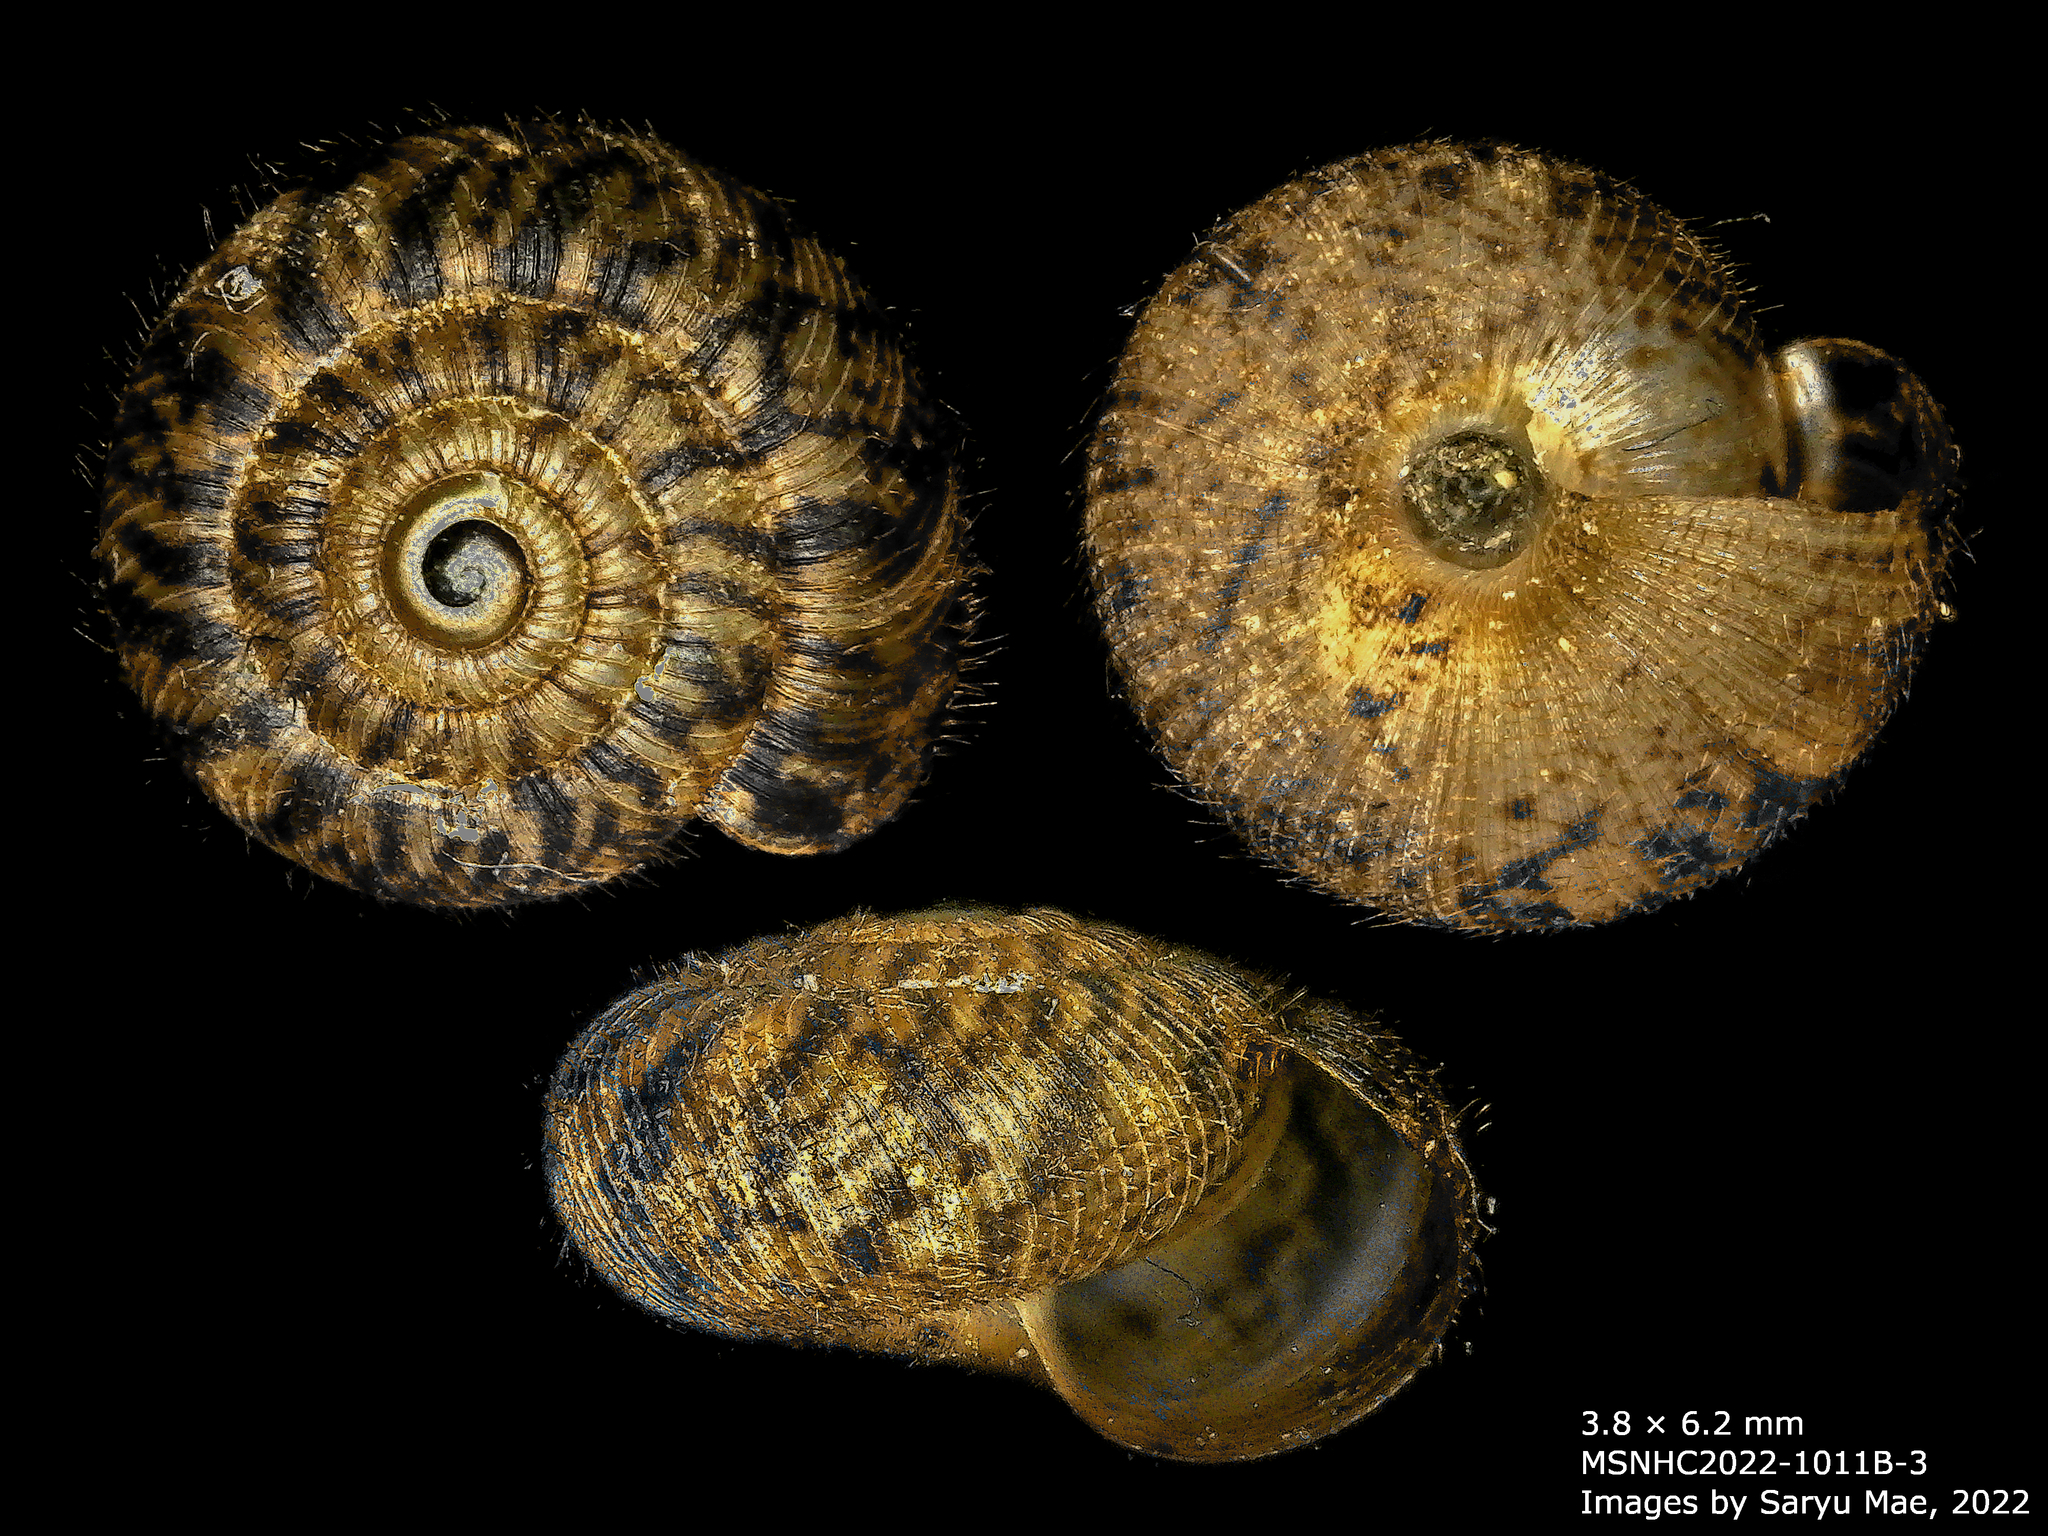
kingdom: Animalia
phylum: Mollusca
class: Gastropoda
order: Stylommatophora
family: Charopidae
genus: Neophenacohelix
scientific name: Neophenacohelix ziczac
